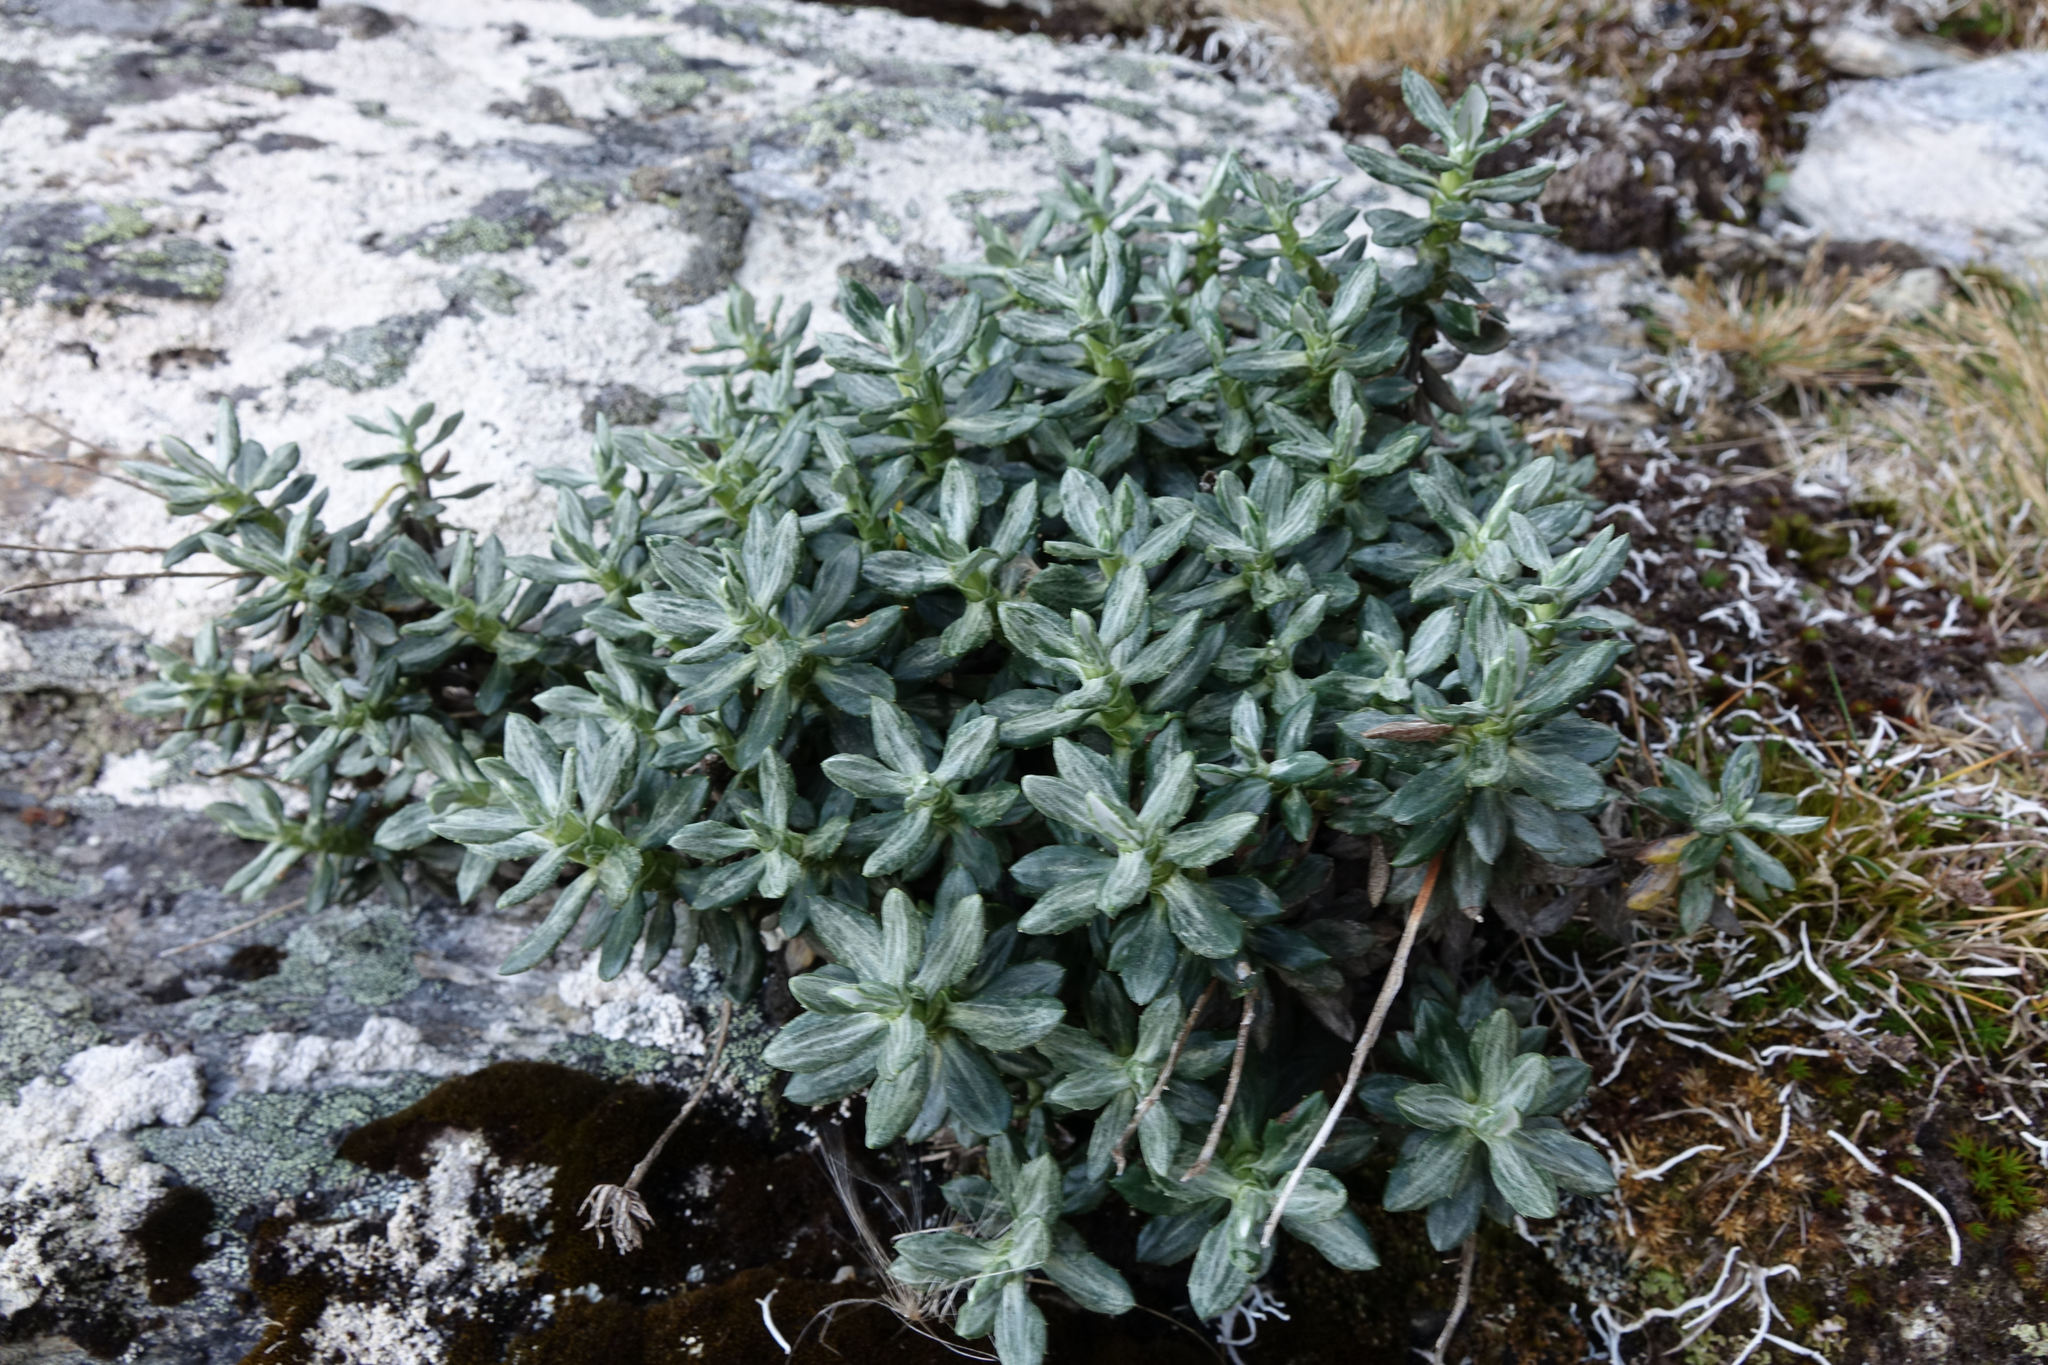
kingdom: Plantae
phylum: Tracheophyta
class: Magnoliopsida
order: Asterales
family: Asteraceae
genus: Celmisia
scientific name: Celmisia brevifolia
